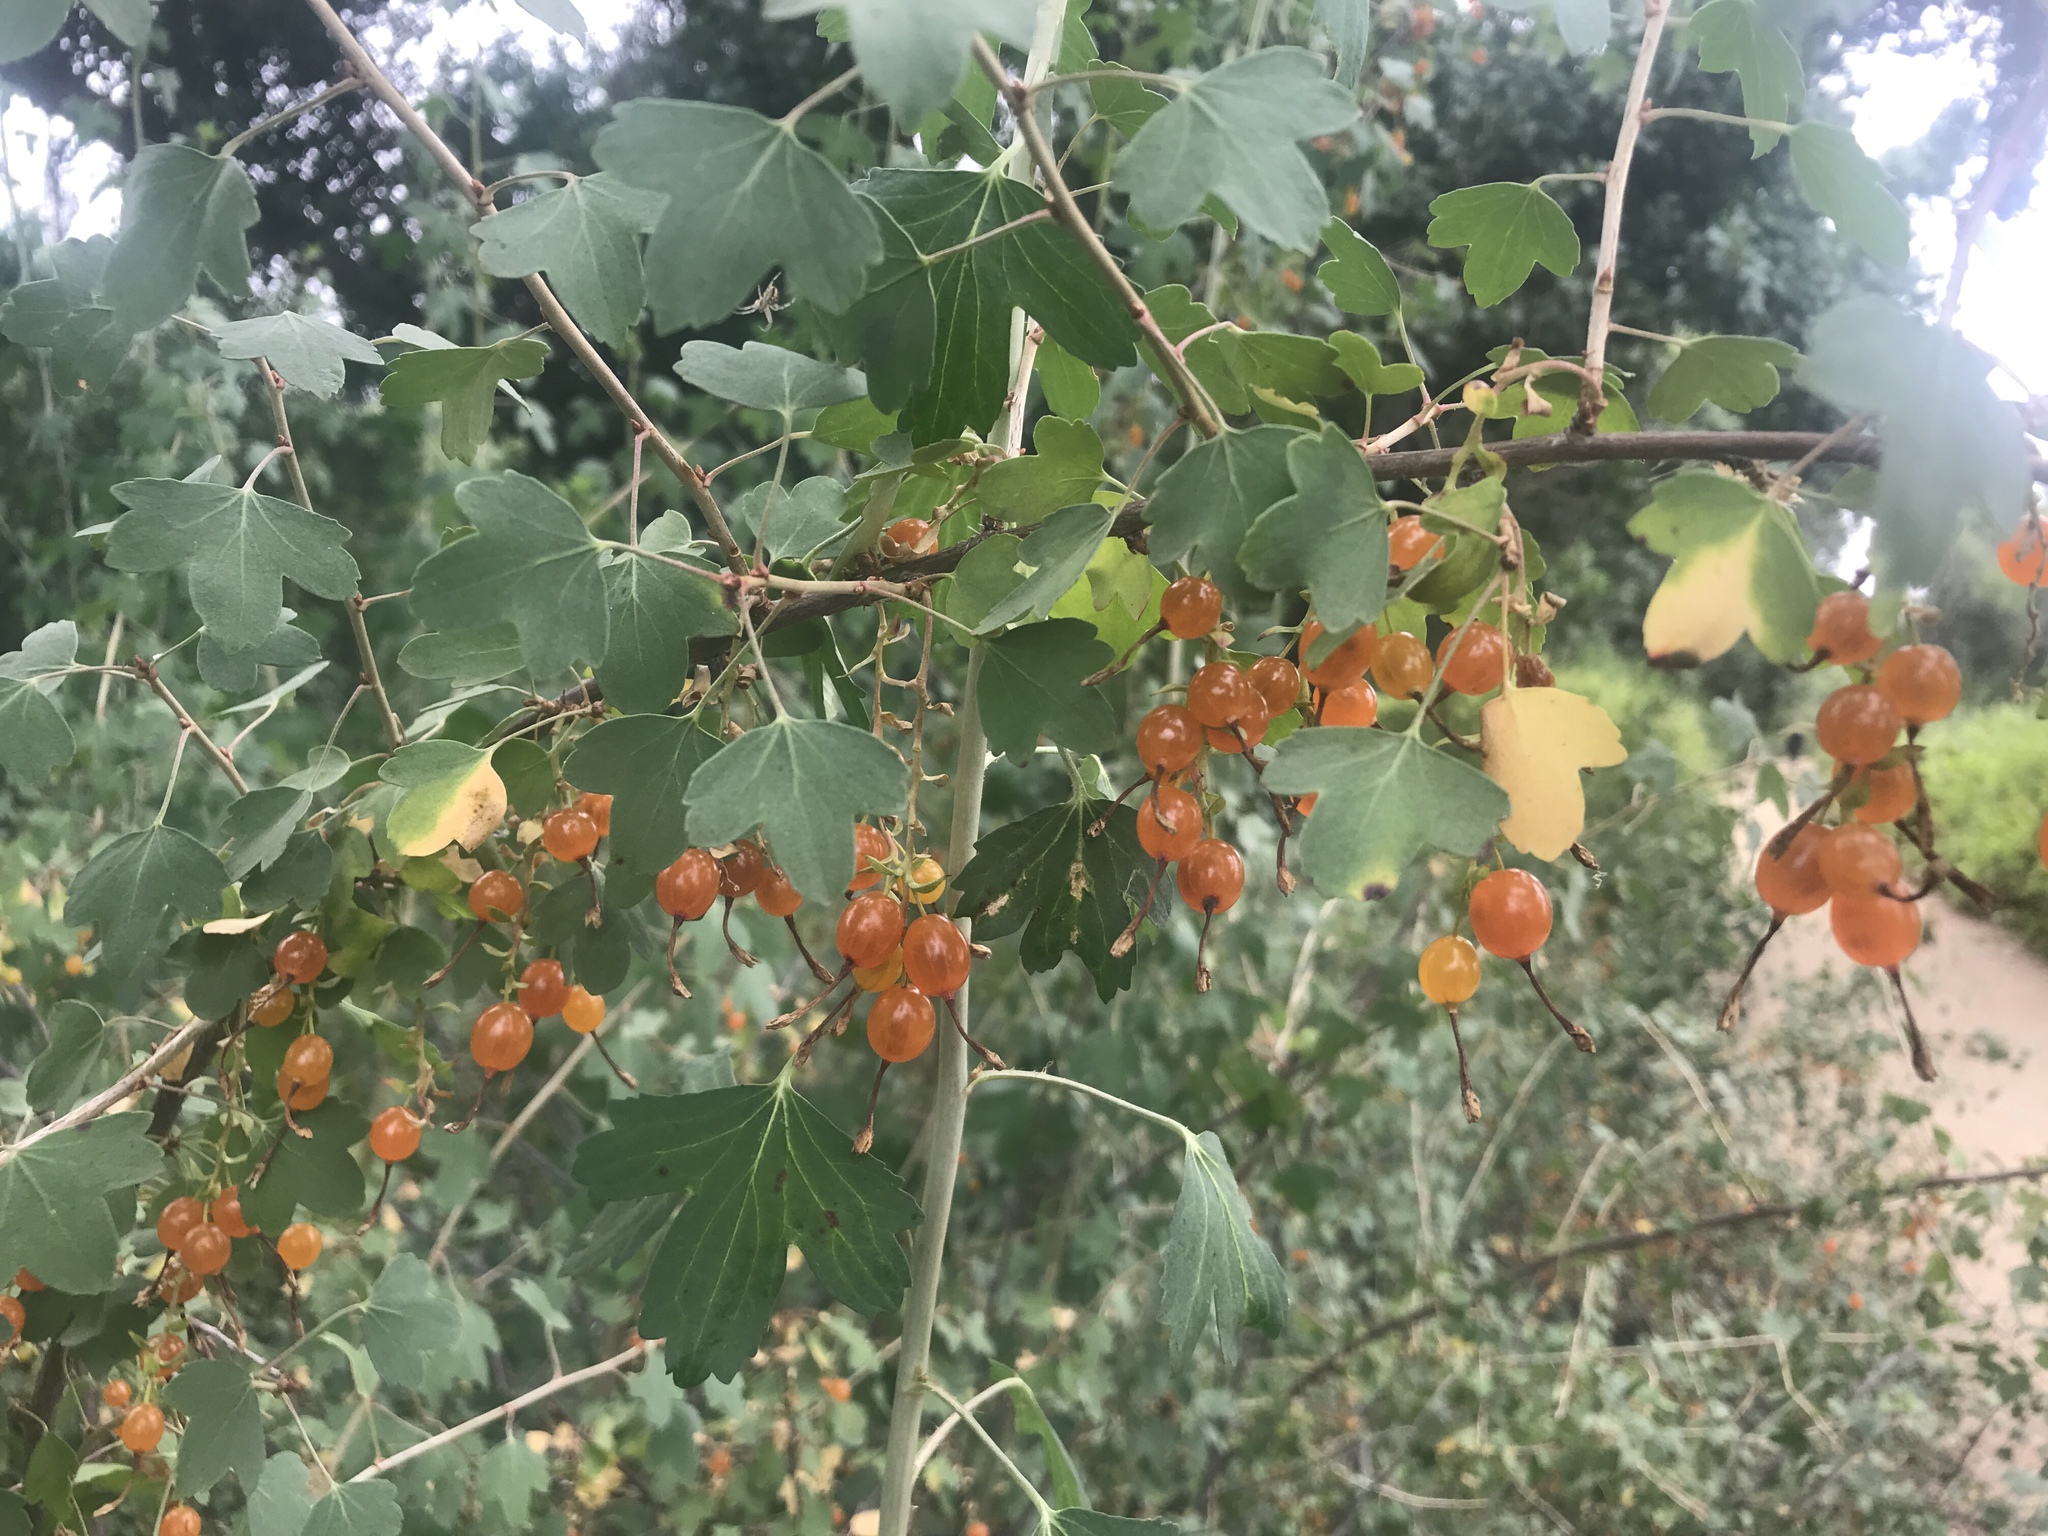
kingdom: Plantae
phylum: Tracheophyta
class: Magnoliopsida
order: Saxifragales
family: Grossulariaceae
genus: Ribes
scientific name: Ribes aureum
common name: Golden currant
